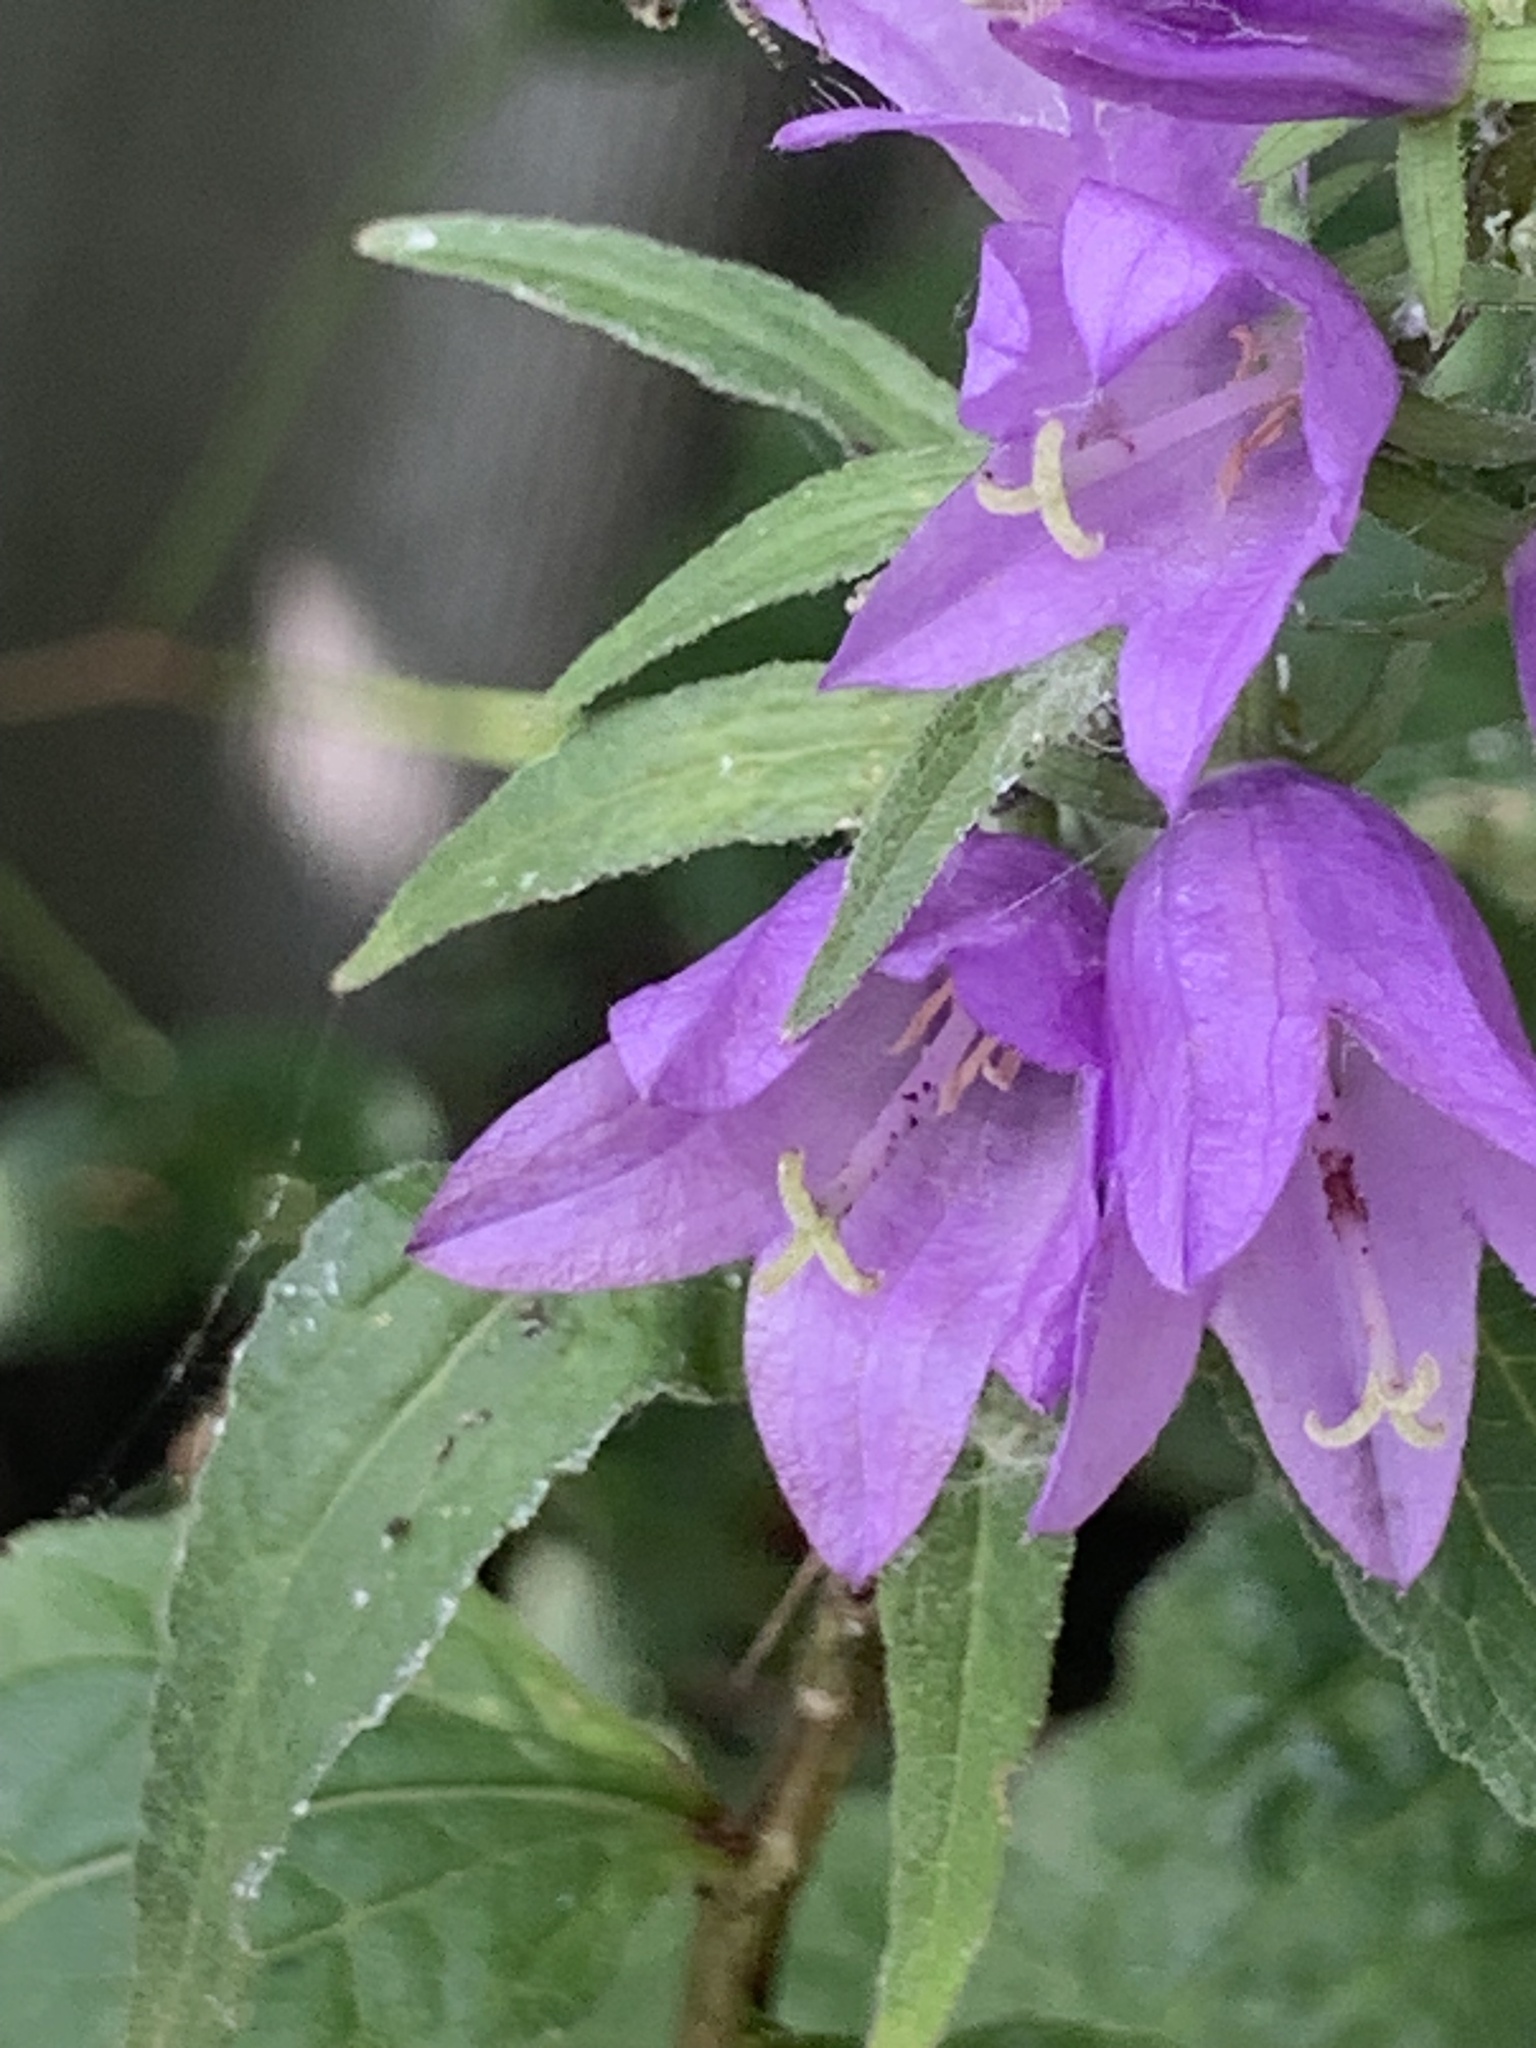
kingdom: Plantae
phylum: Tracheophyta
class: Magnoliopsida
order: Asterales
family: Campanulaceae
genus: Campanula
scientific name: Campanula rapunculoides
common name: Creeping bellflower
